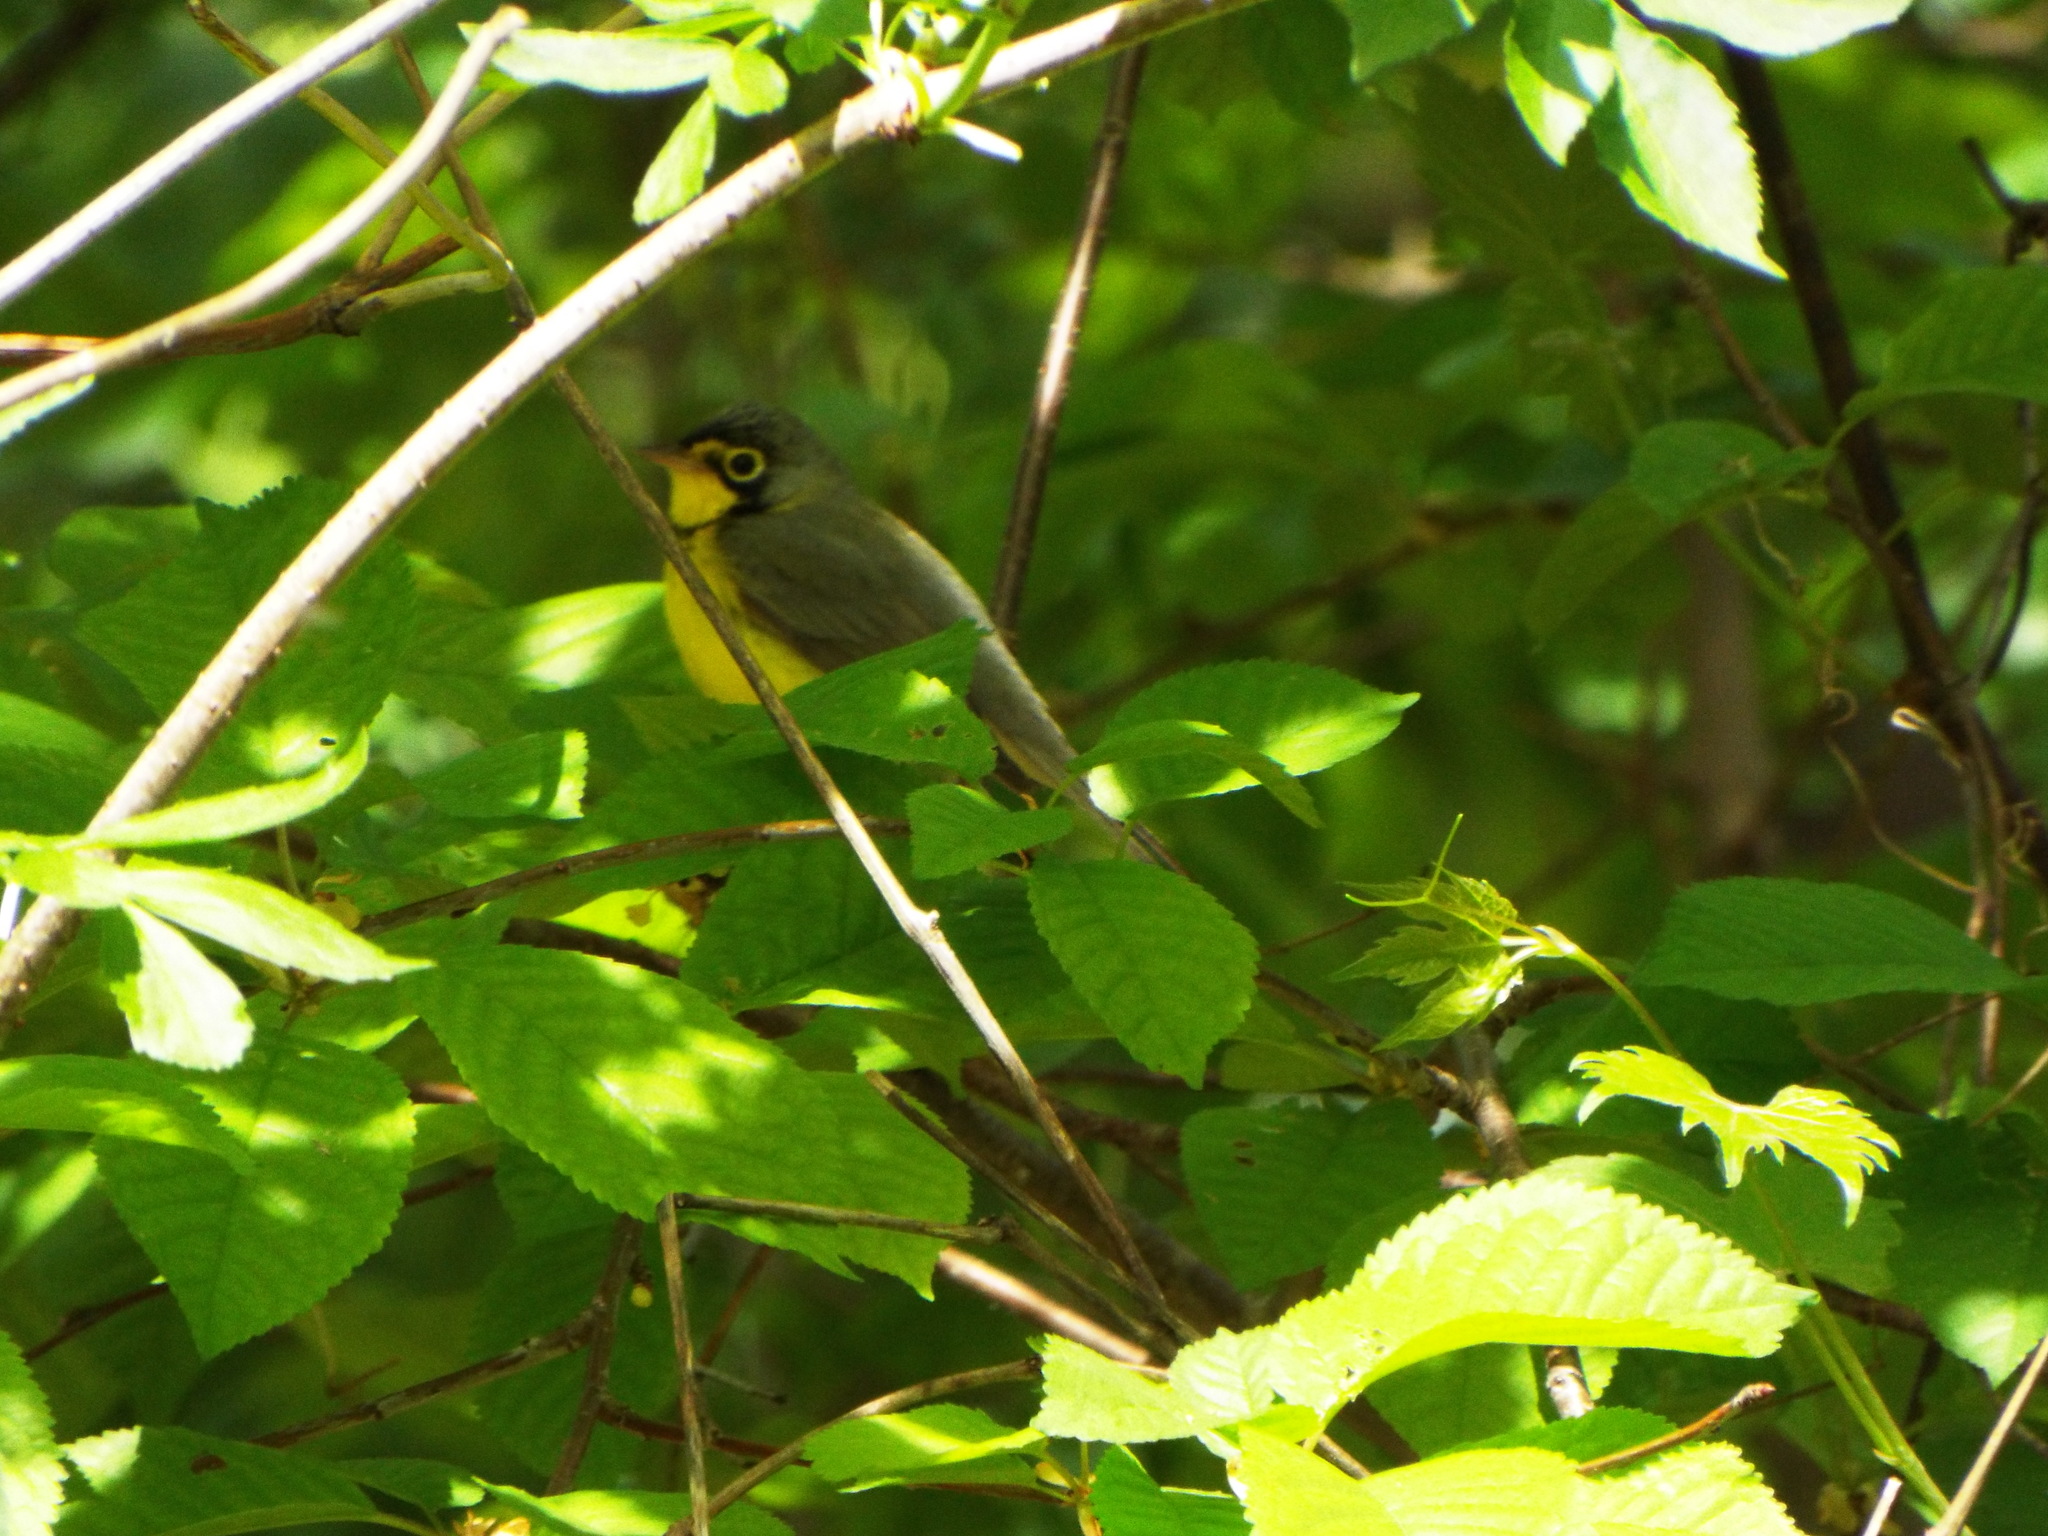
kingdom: Animalia
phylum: Chordata
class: Aves
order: Passeriformes
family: Parulidae
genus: Cardellina
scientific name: Cardellina canadensis
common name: Canada warbler
